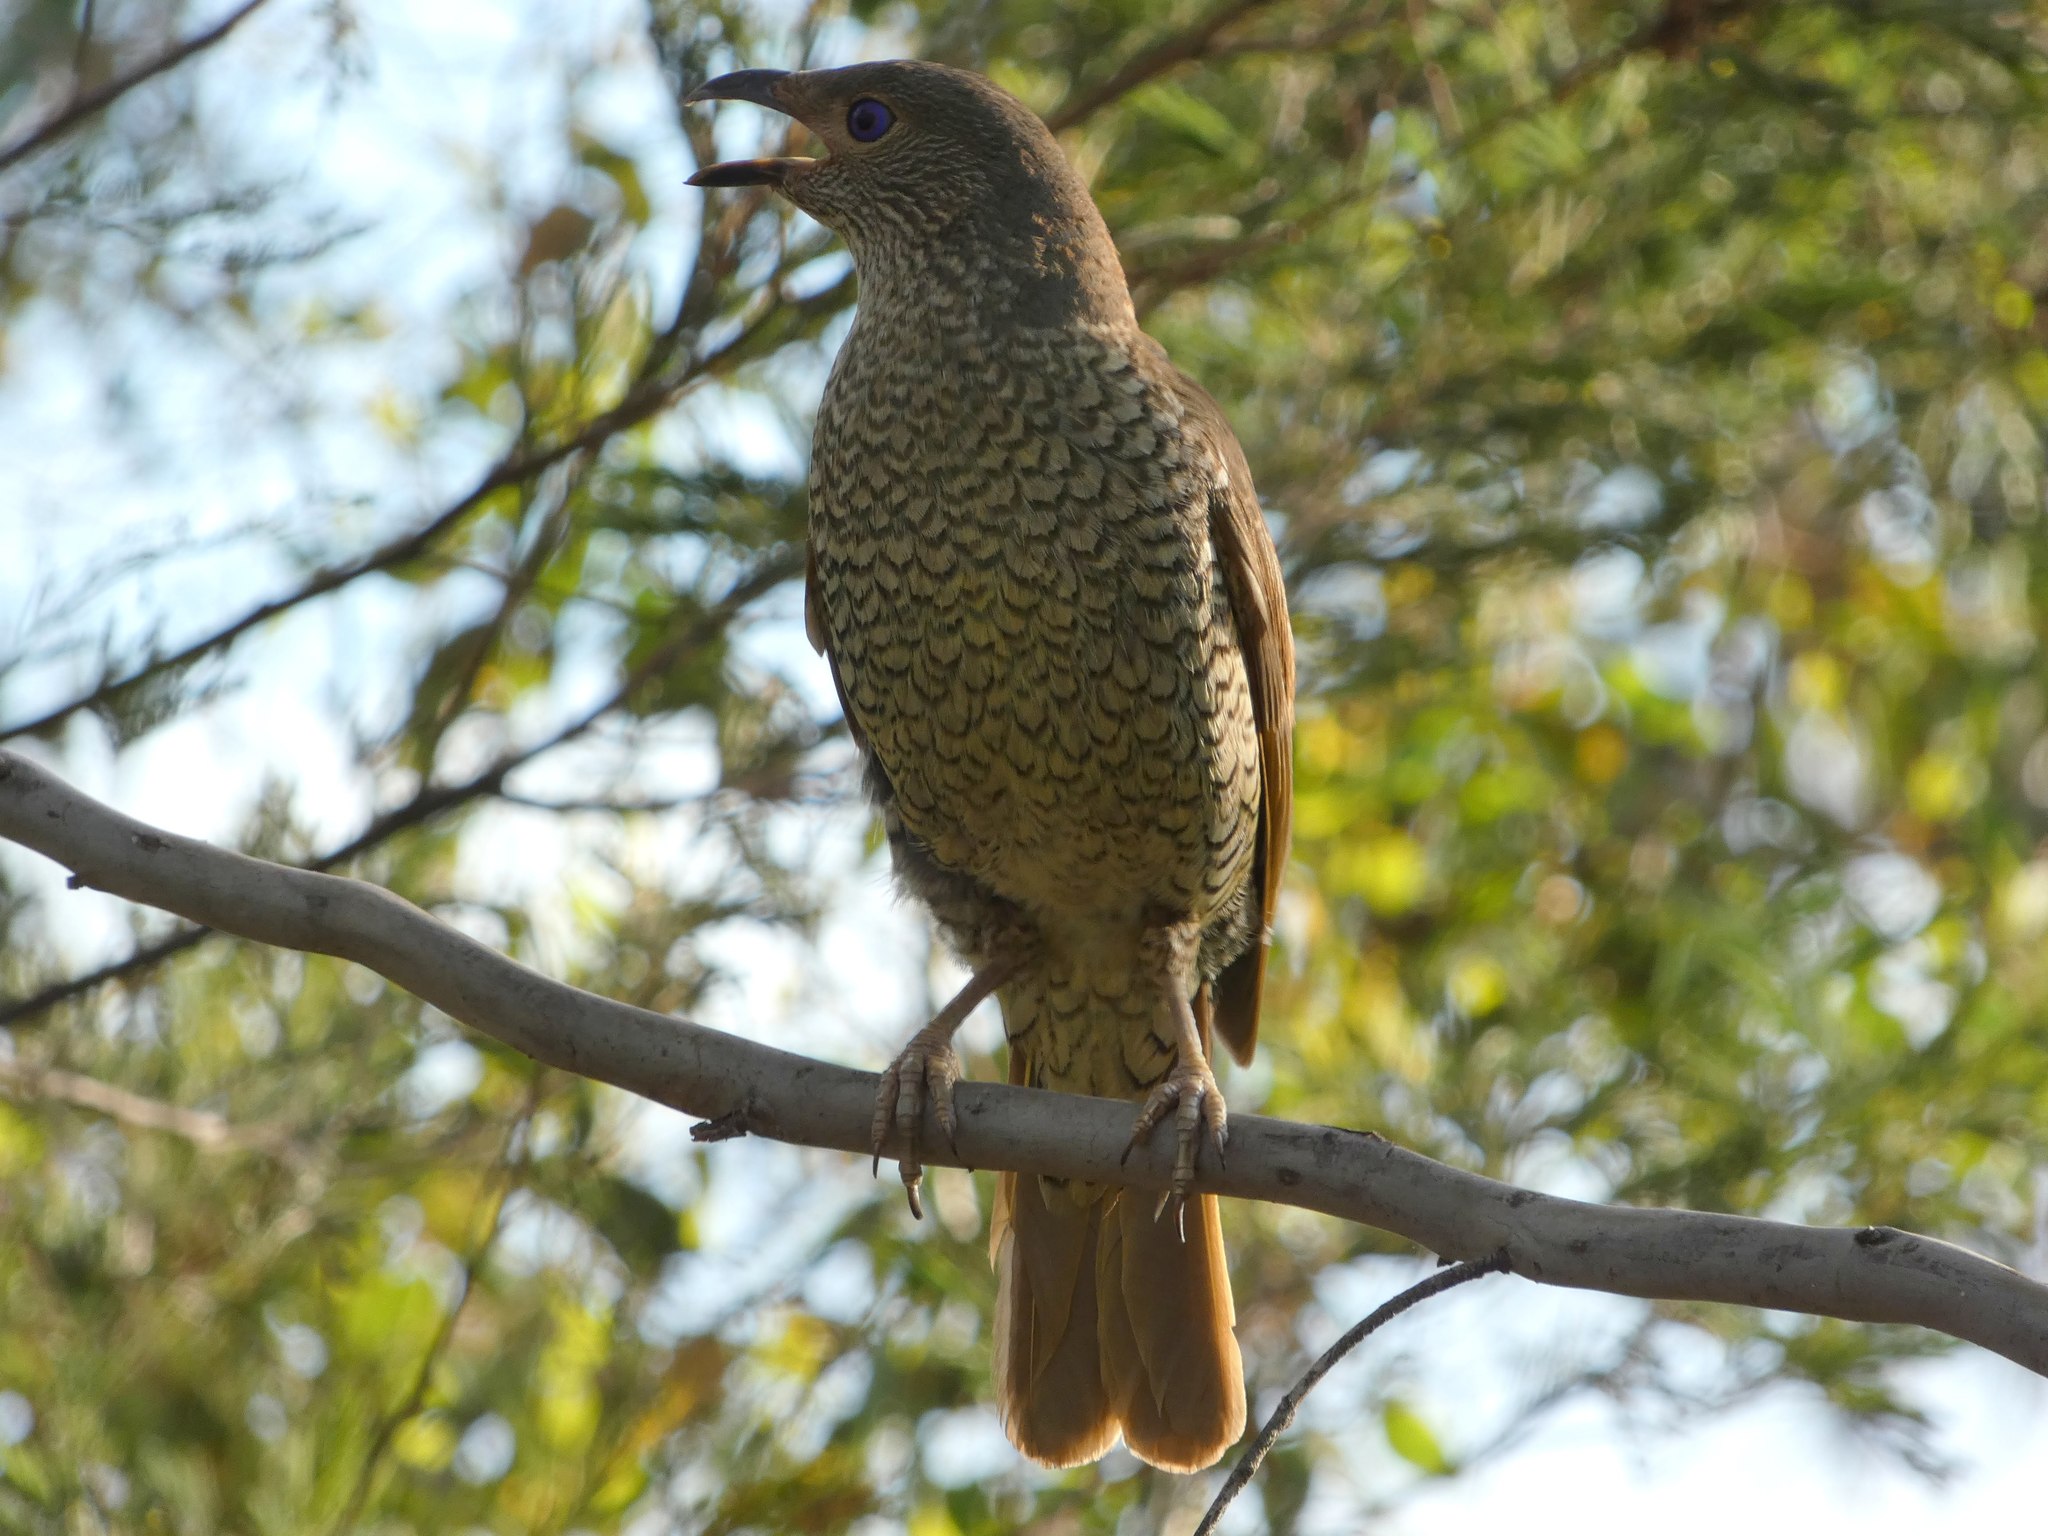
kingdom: Animalia
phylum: Chordata
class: Aves
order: Passeriformes
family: Ptilonorhynchidae
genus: Ptilonorhynchus
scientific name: Ptilonorhynchus violaceus
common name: Satin bowerbird
